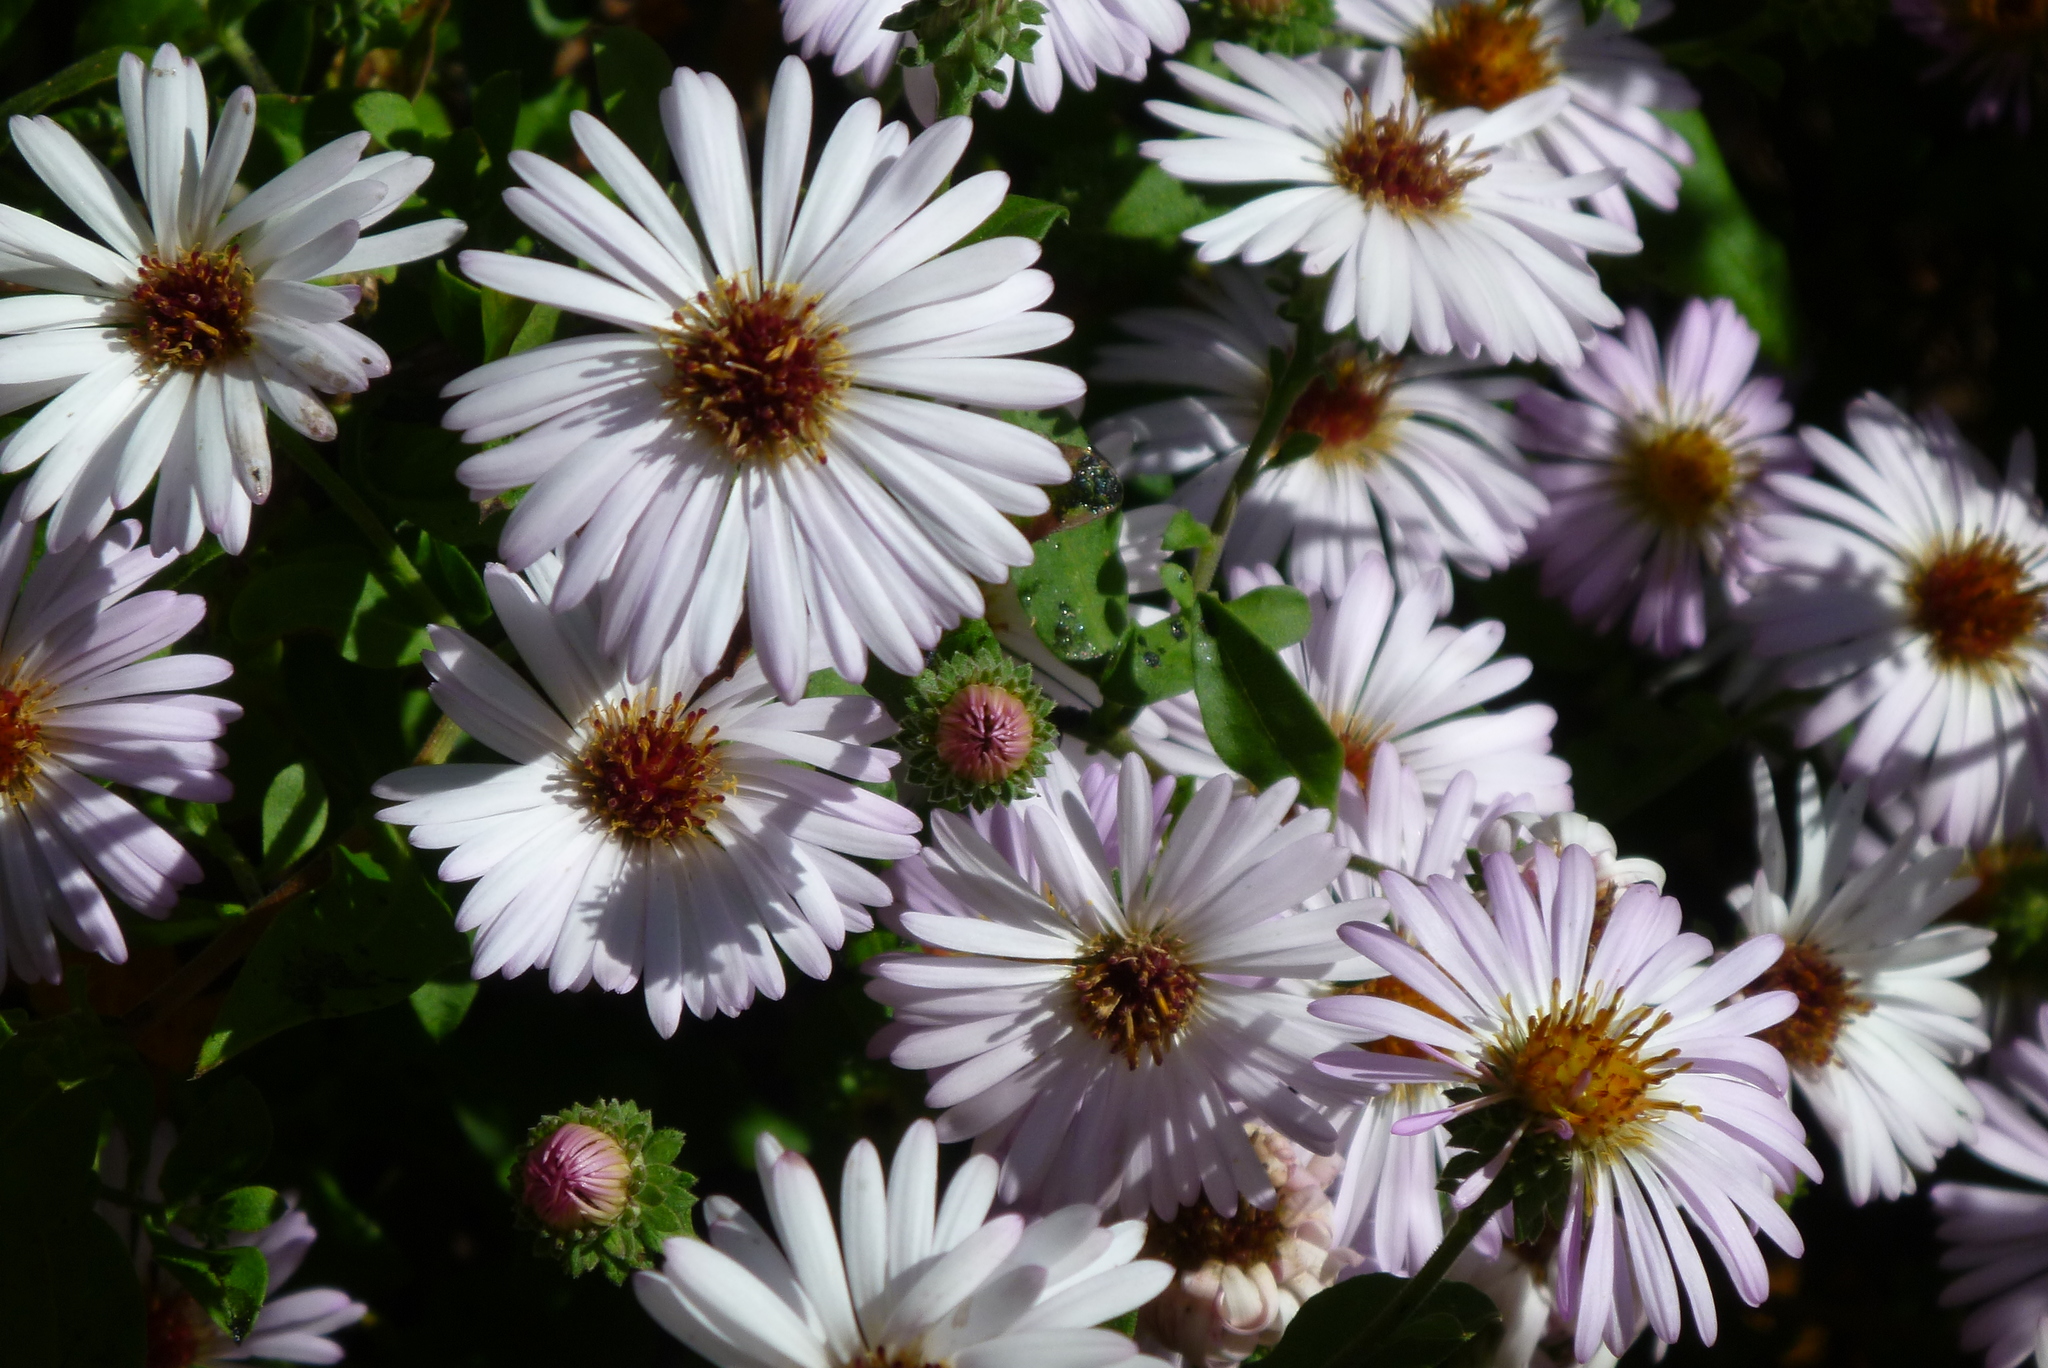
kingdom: Plantae
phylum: Tracheophyta
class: Magnoliopsida
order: Asterales
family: Asteraceae
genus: Ampelaster
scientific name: Ampelaster carolinianus
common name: Climbing aster
